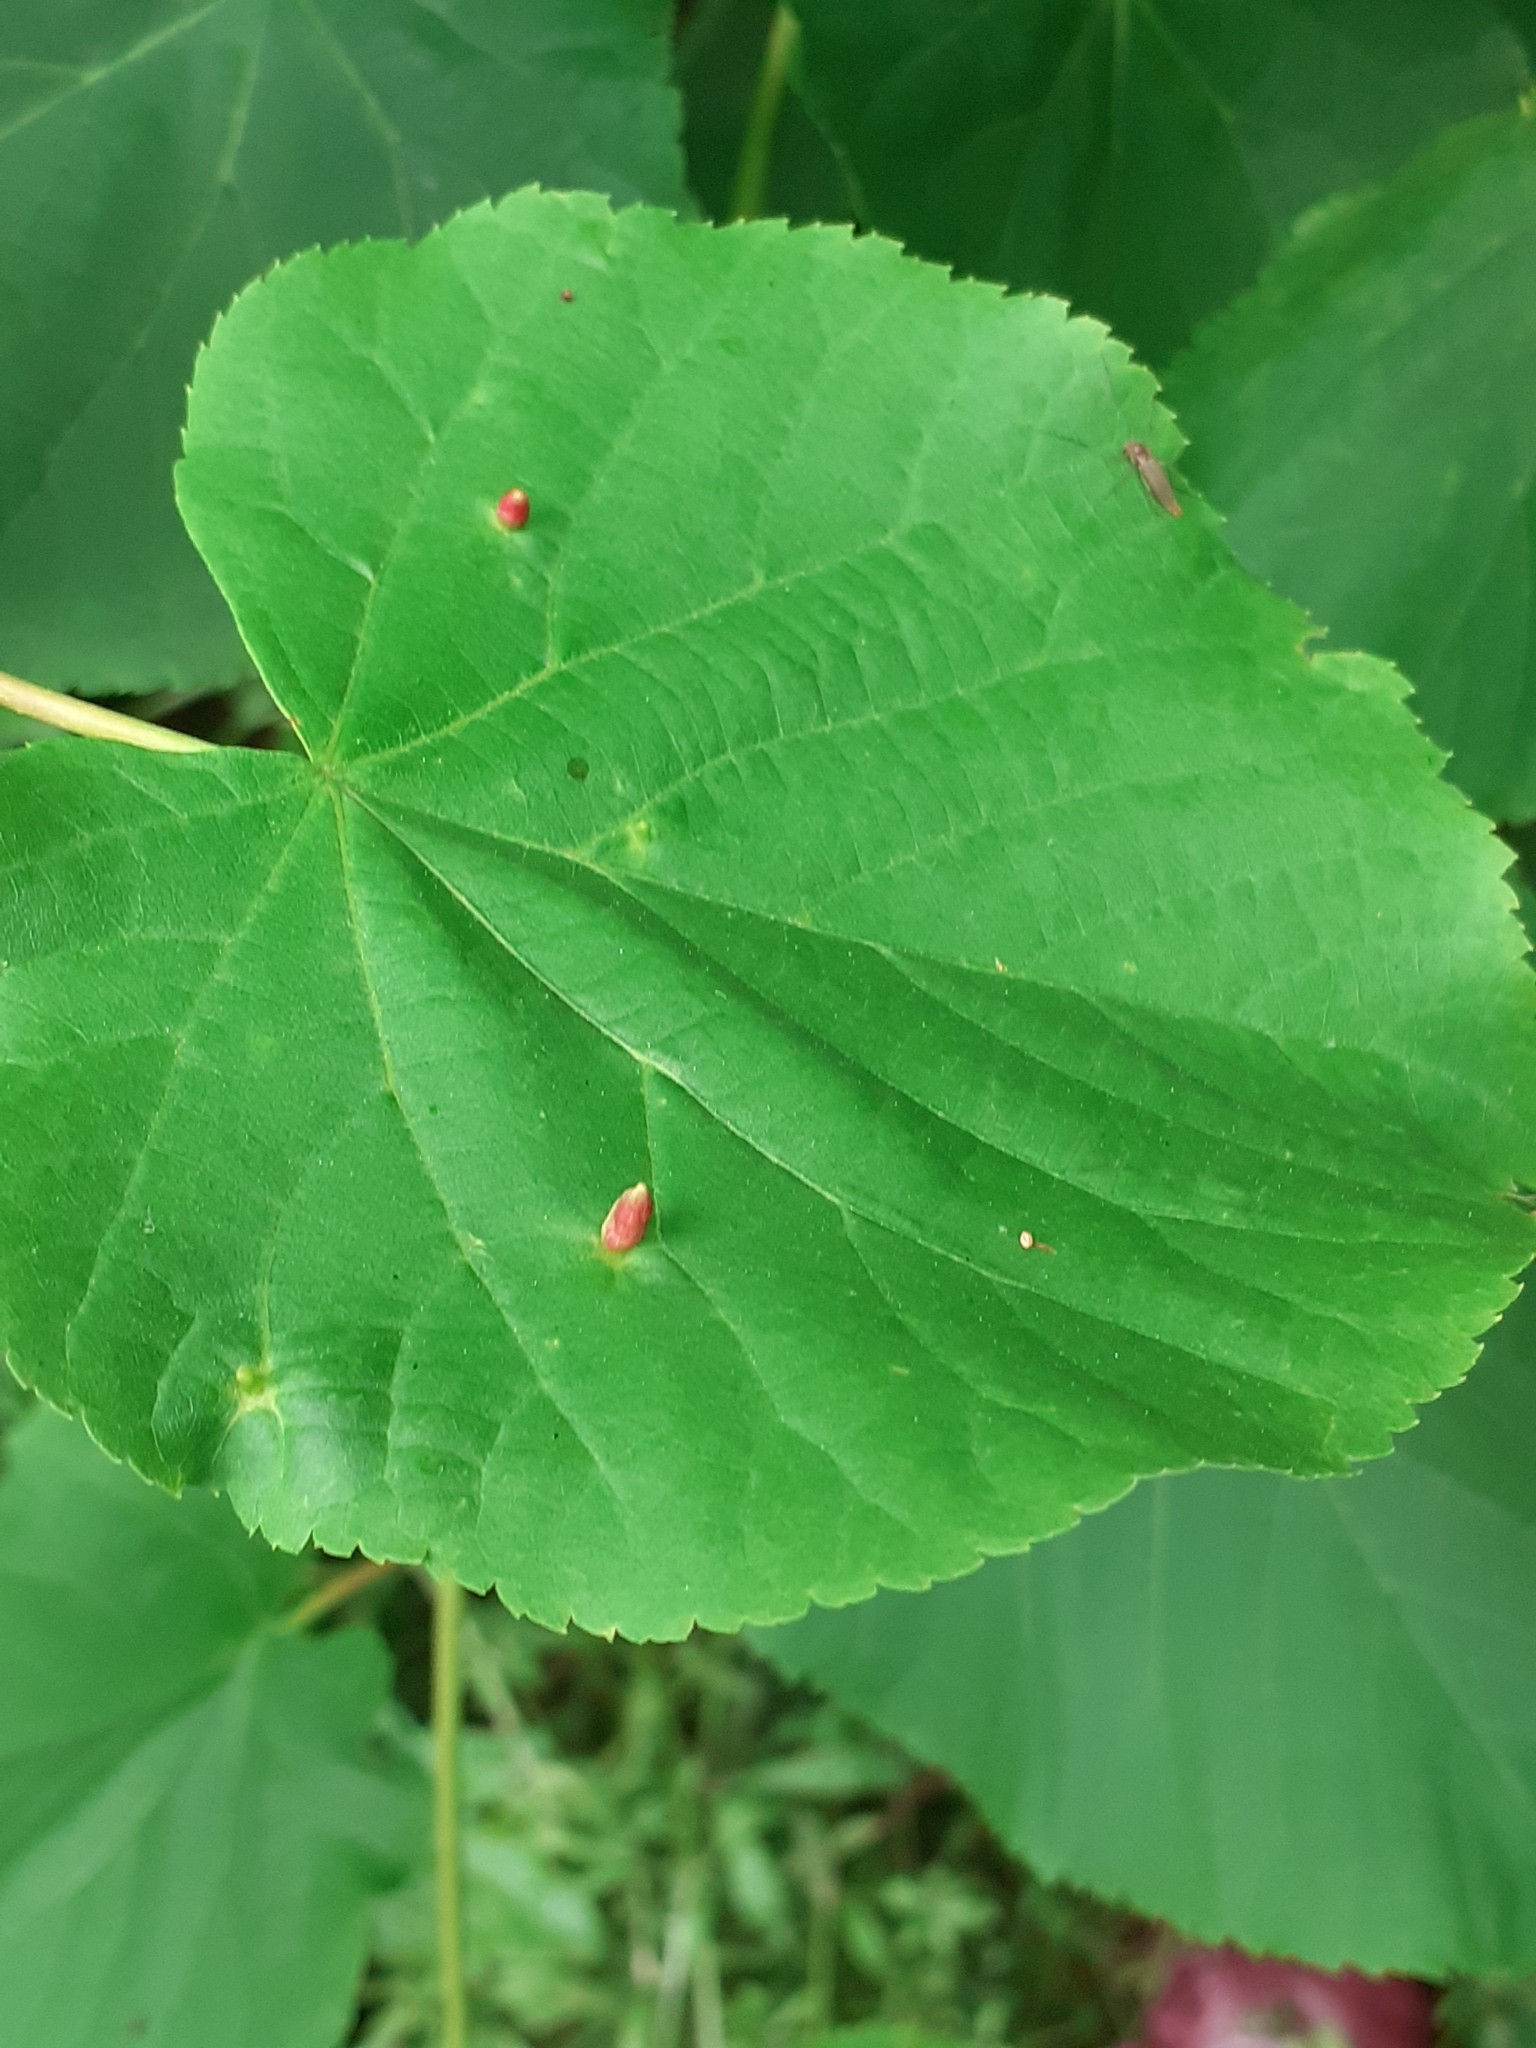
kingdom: Animalia
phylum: Arthropoda
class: Arachnida
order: Trombidiformes
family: Eriophyidae
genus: Eriophyes
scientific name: Eriophyes tiliae
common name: Red nail gall mite
